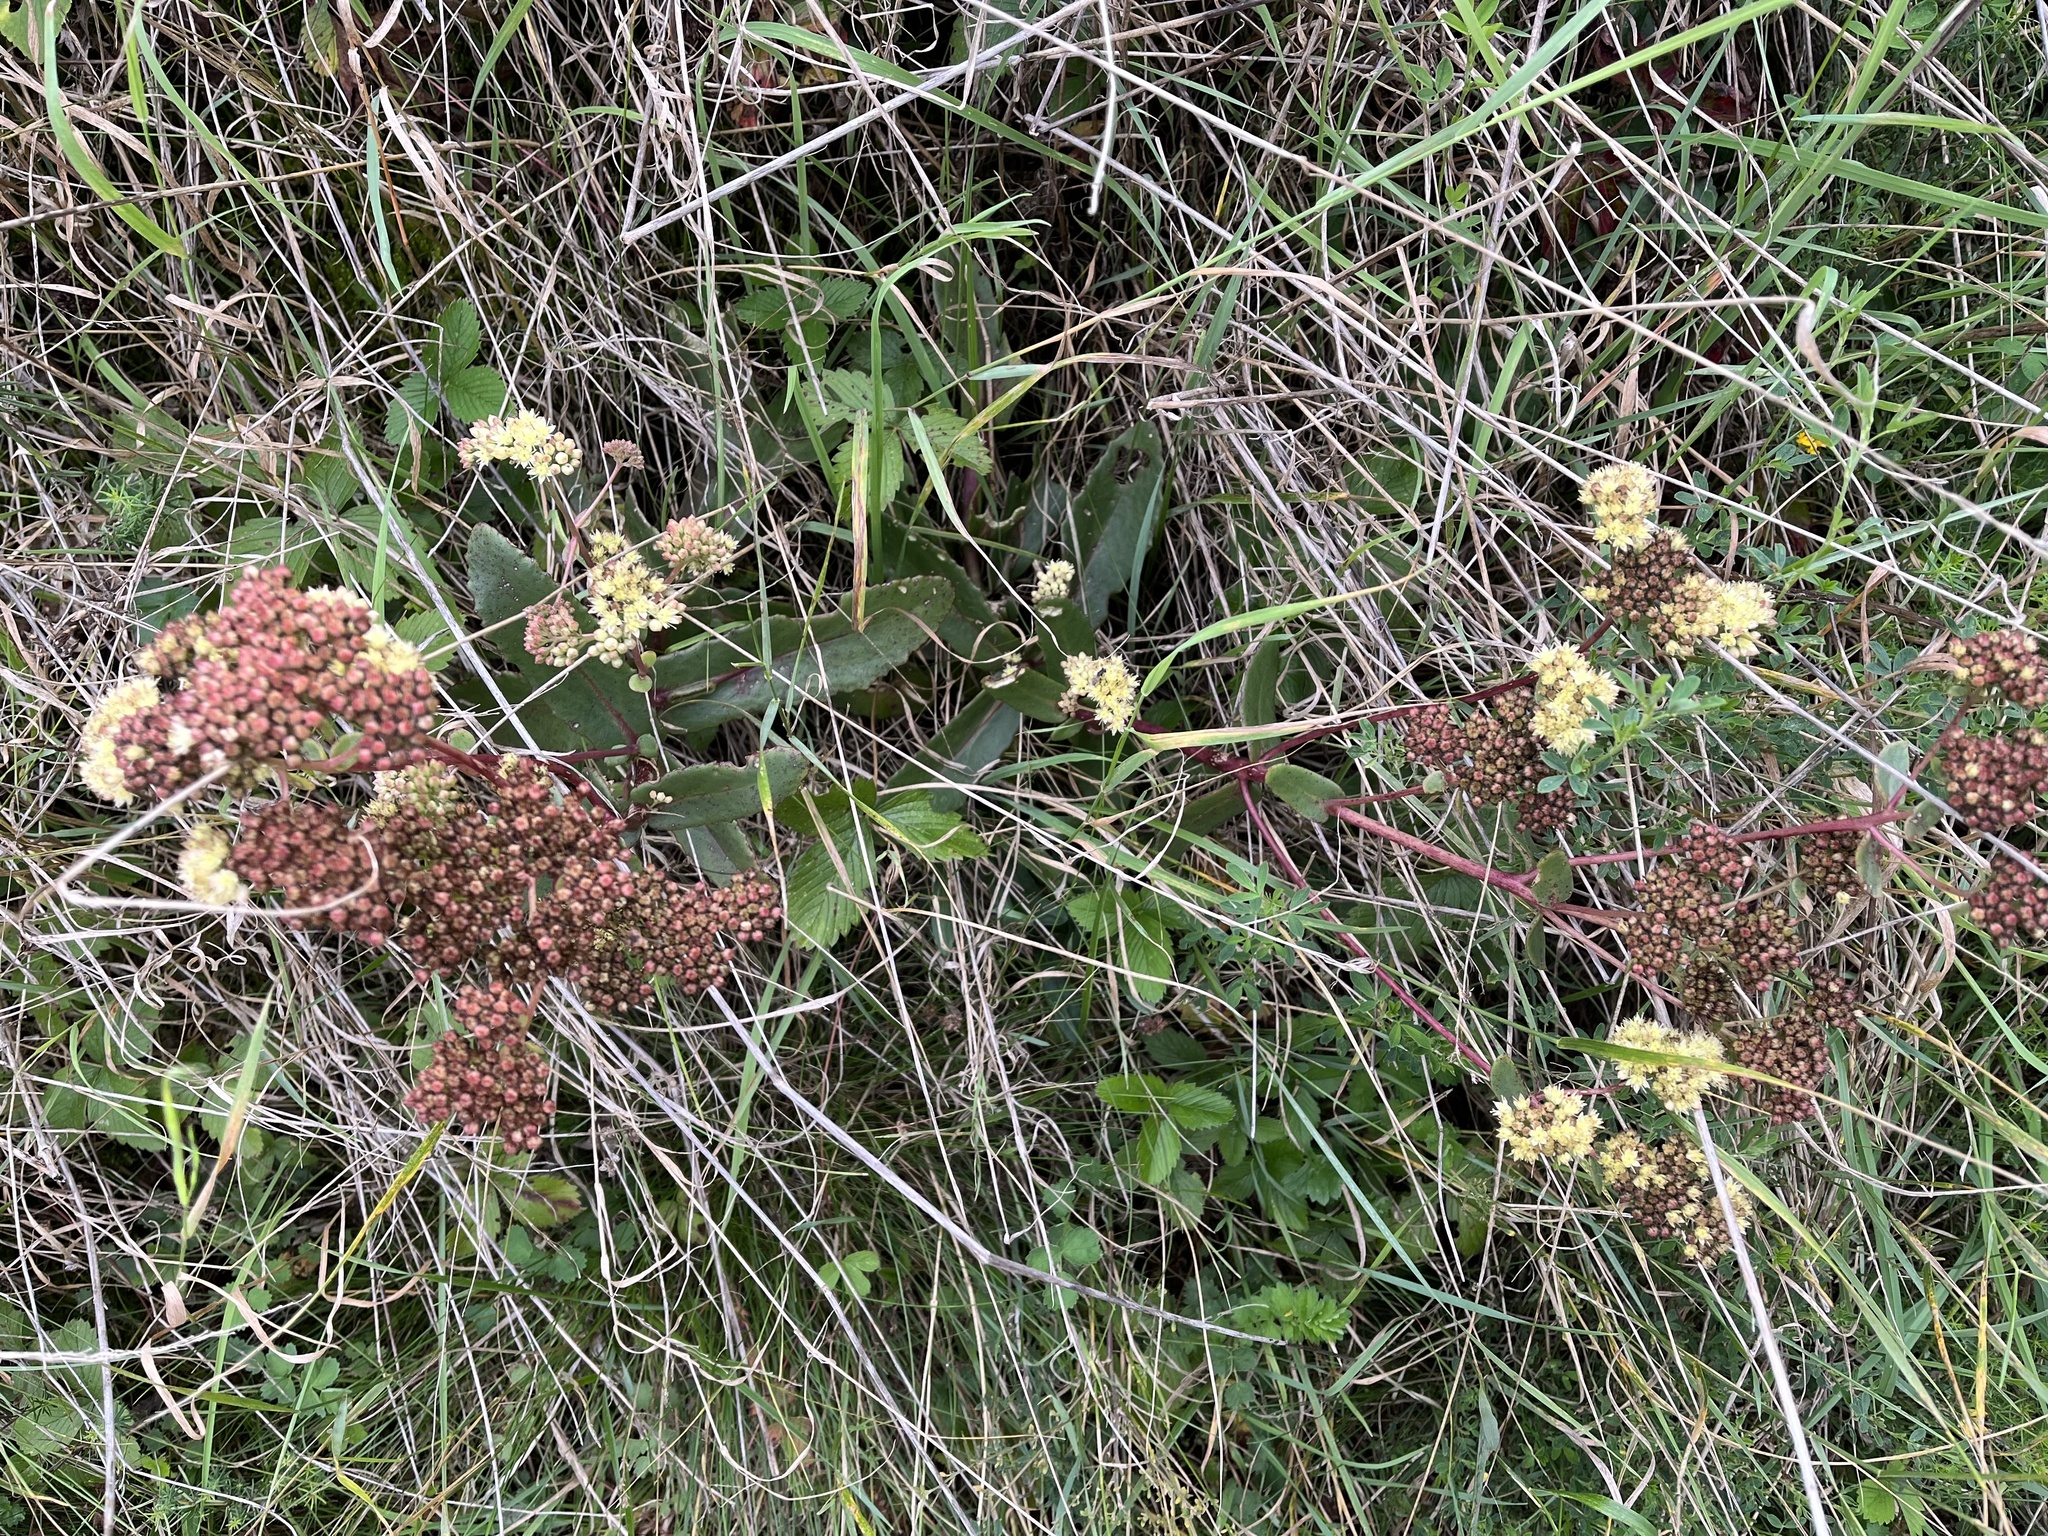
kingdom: Plantae
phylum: Tracheophyta
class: Magnoliopsida
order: Saxifragales
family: Crassulaceae
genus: Hylotelephium
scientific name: Hylotelephium maximum
